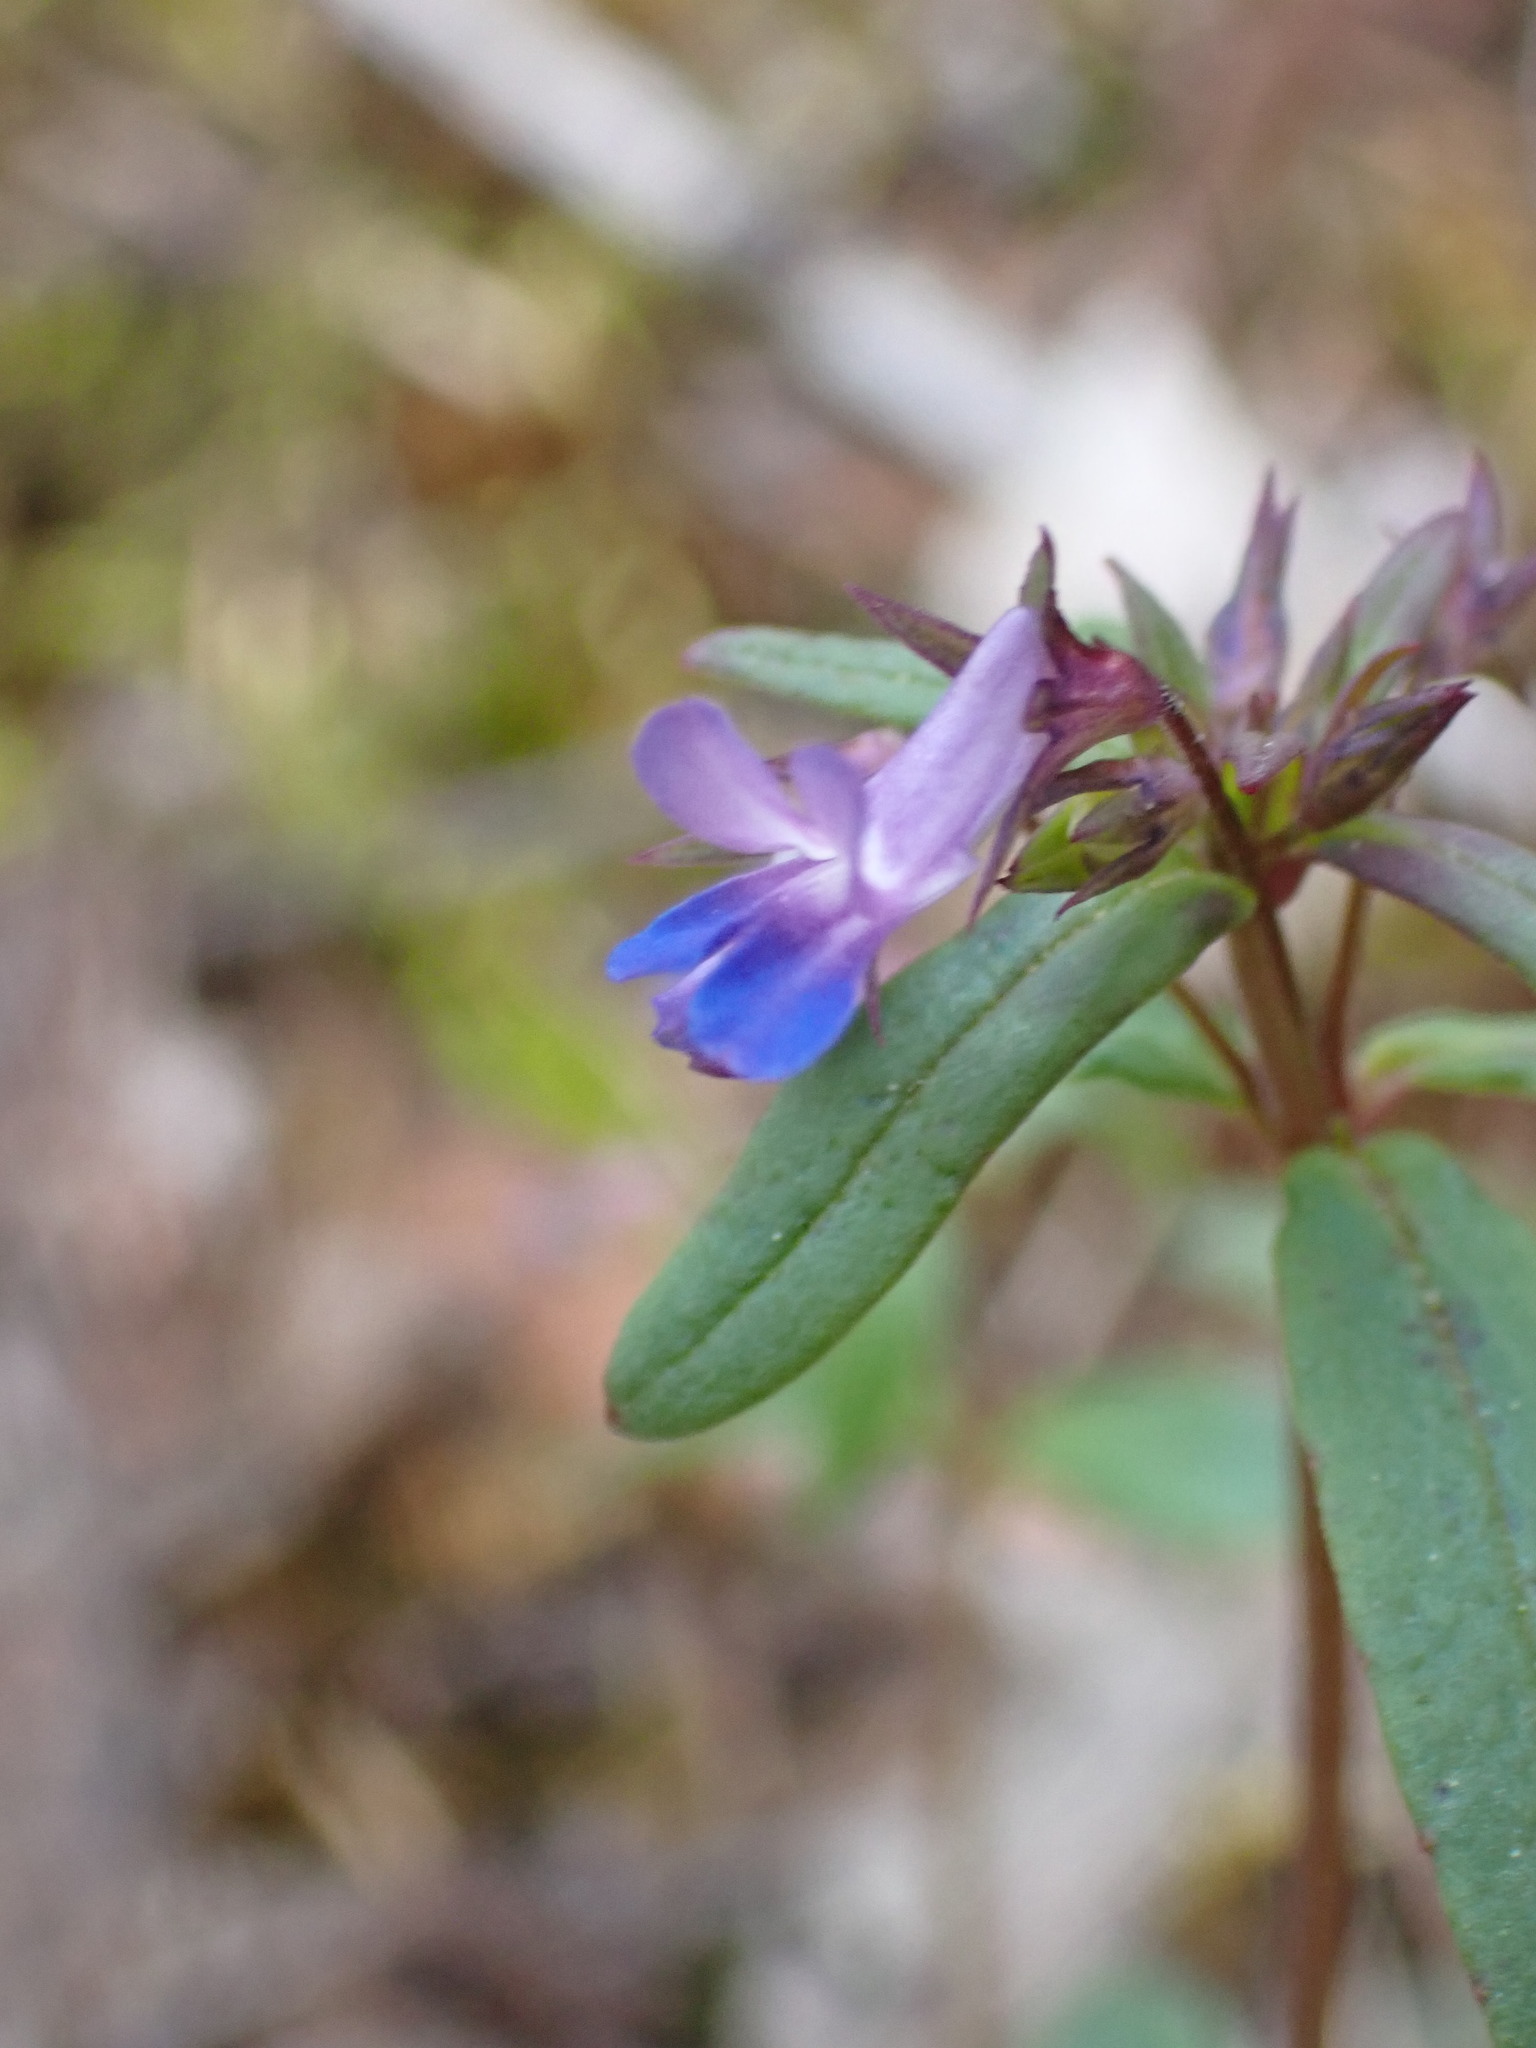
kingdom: Plantae
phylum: Tracheophyta
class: Magnoliopsida
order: Lamiales
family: Plantaginaceae
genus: Collinsia
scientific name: Collinsia parviflora
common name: Blue-lips
